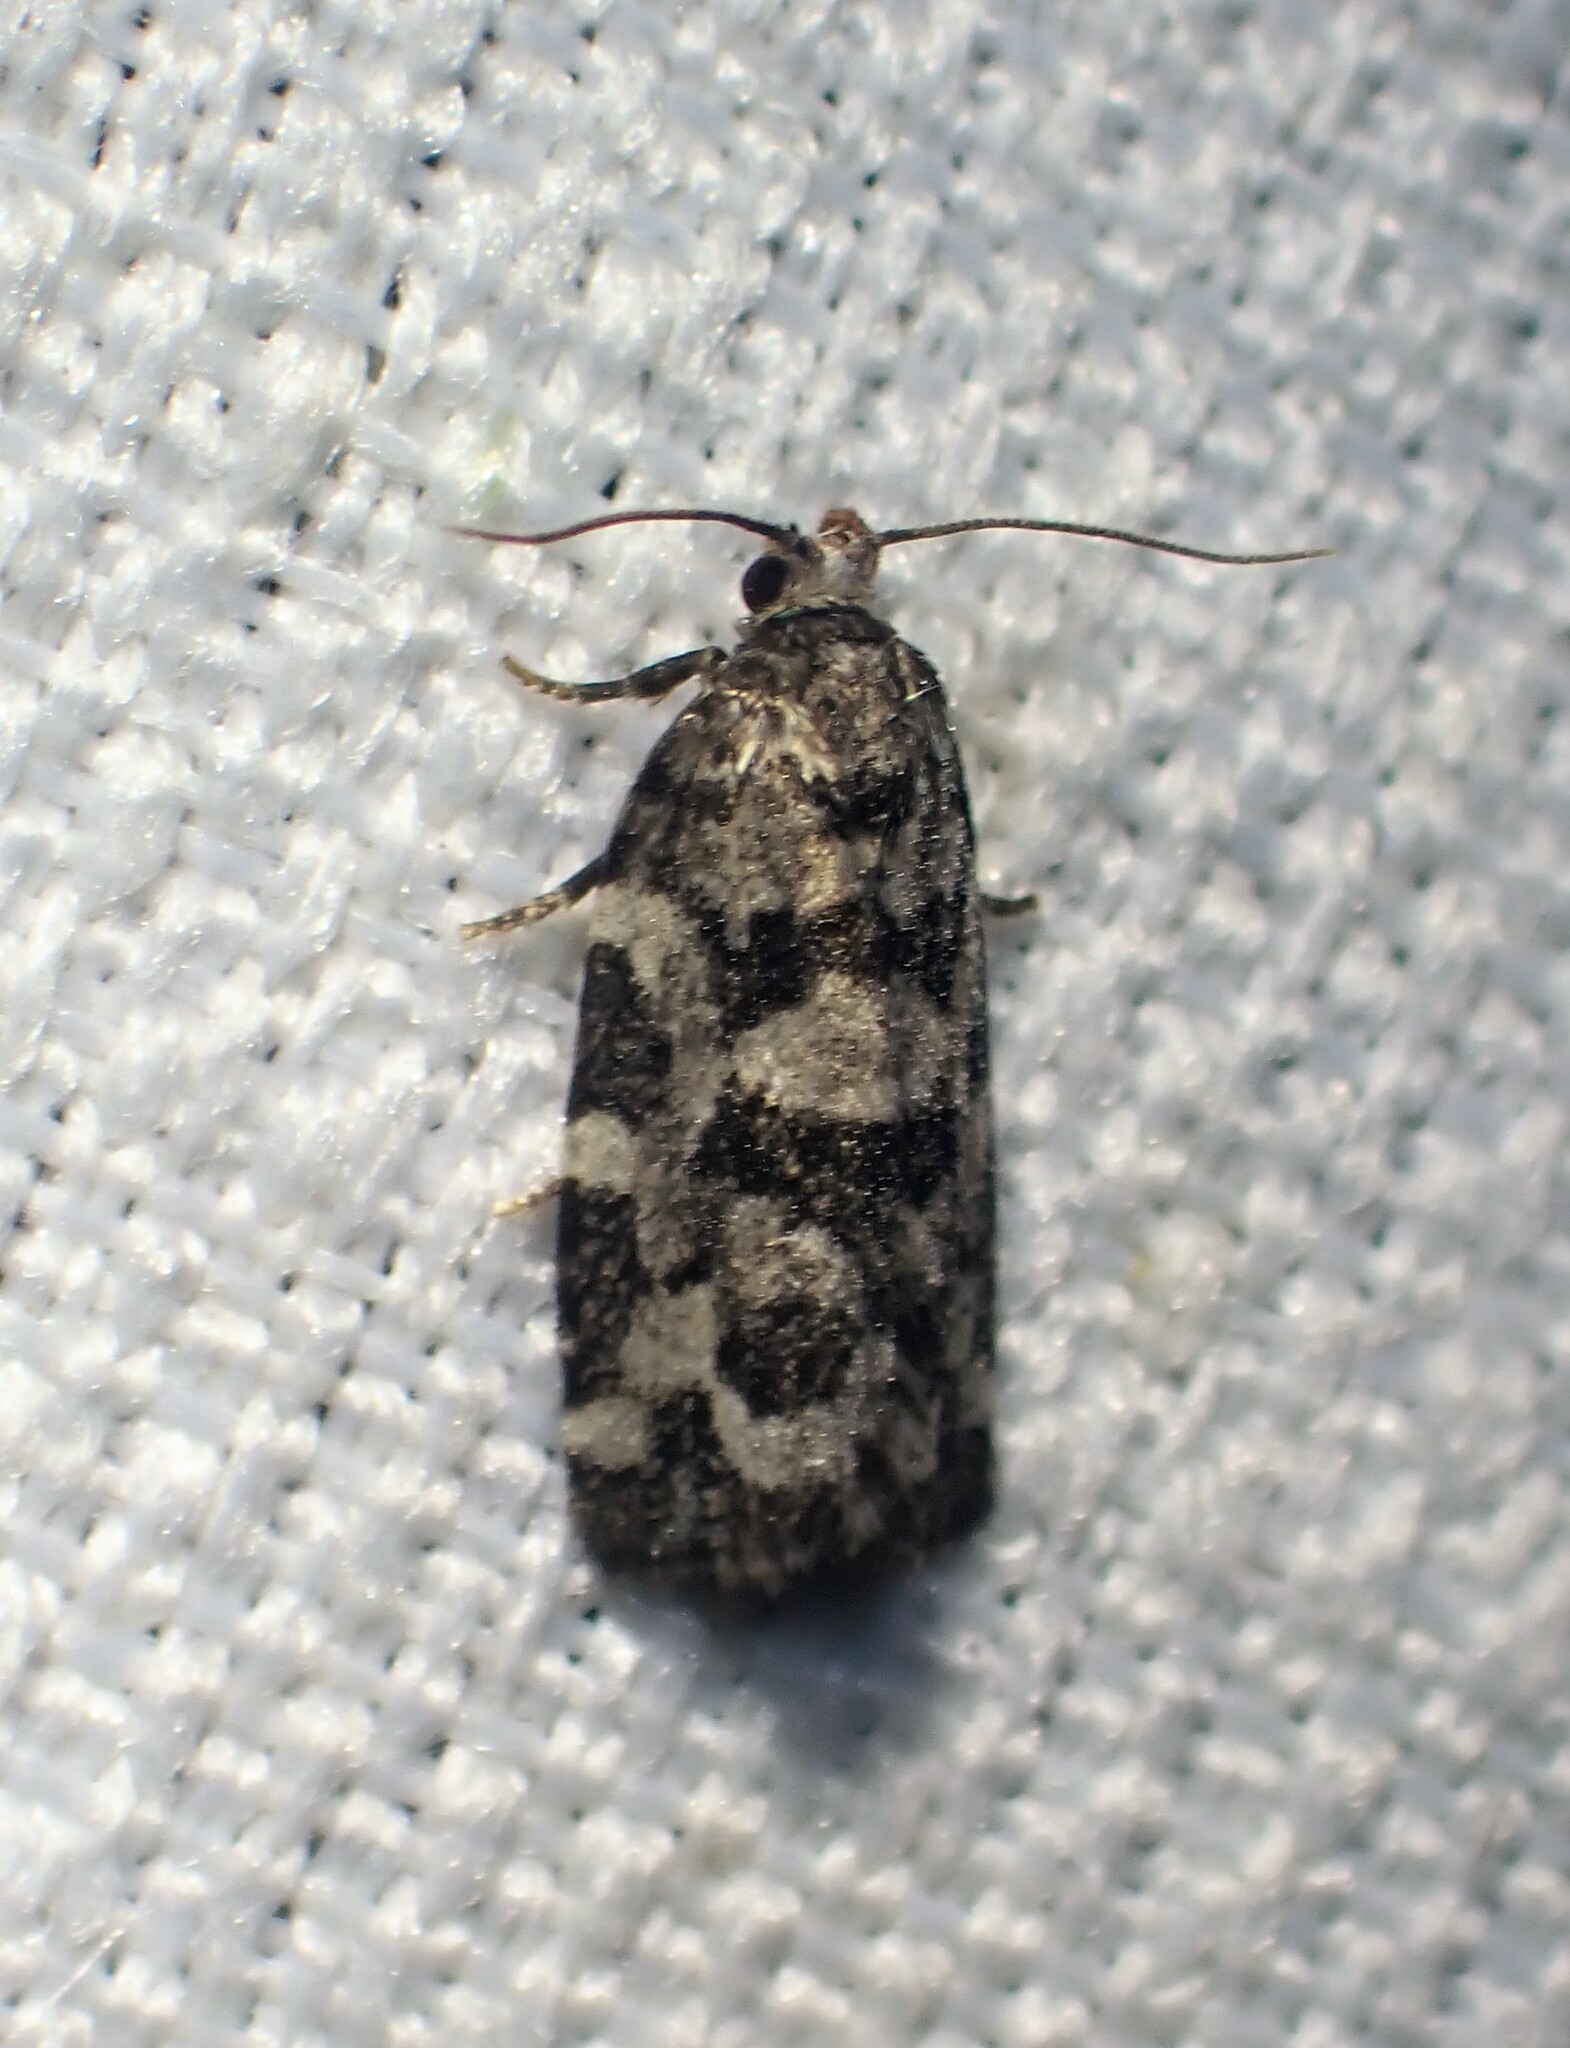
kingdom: Animalia
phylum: Arthropoda
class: Insecta
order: Lepidoptera
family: Tortricidae
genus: Archips
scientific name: Archips packardiana
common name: Spring spruce needle moth
